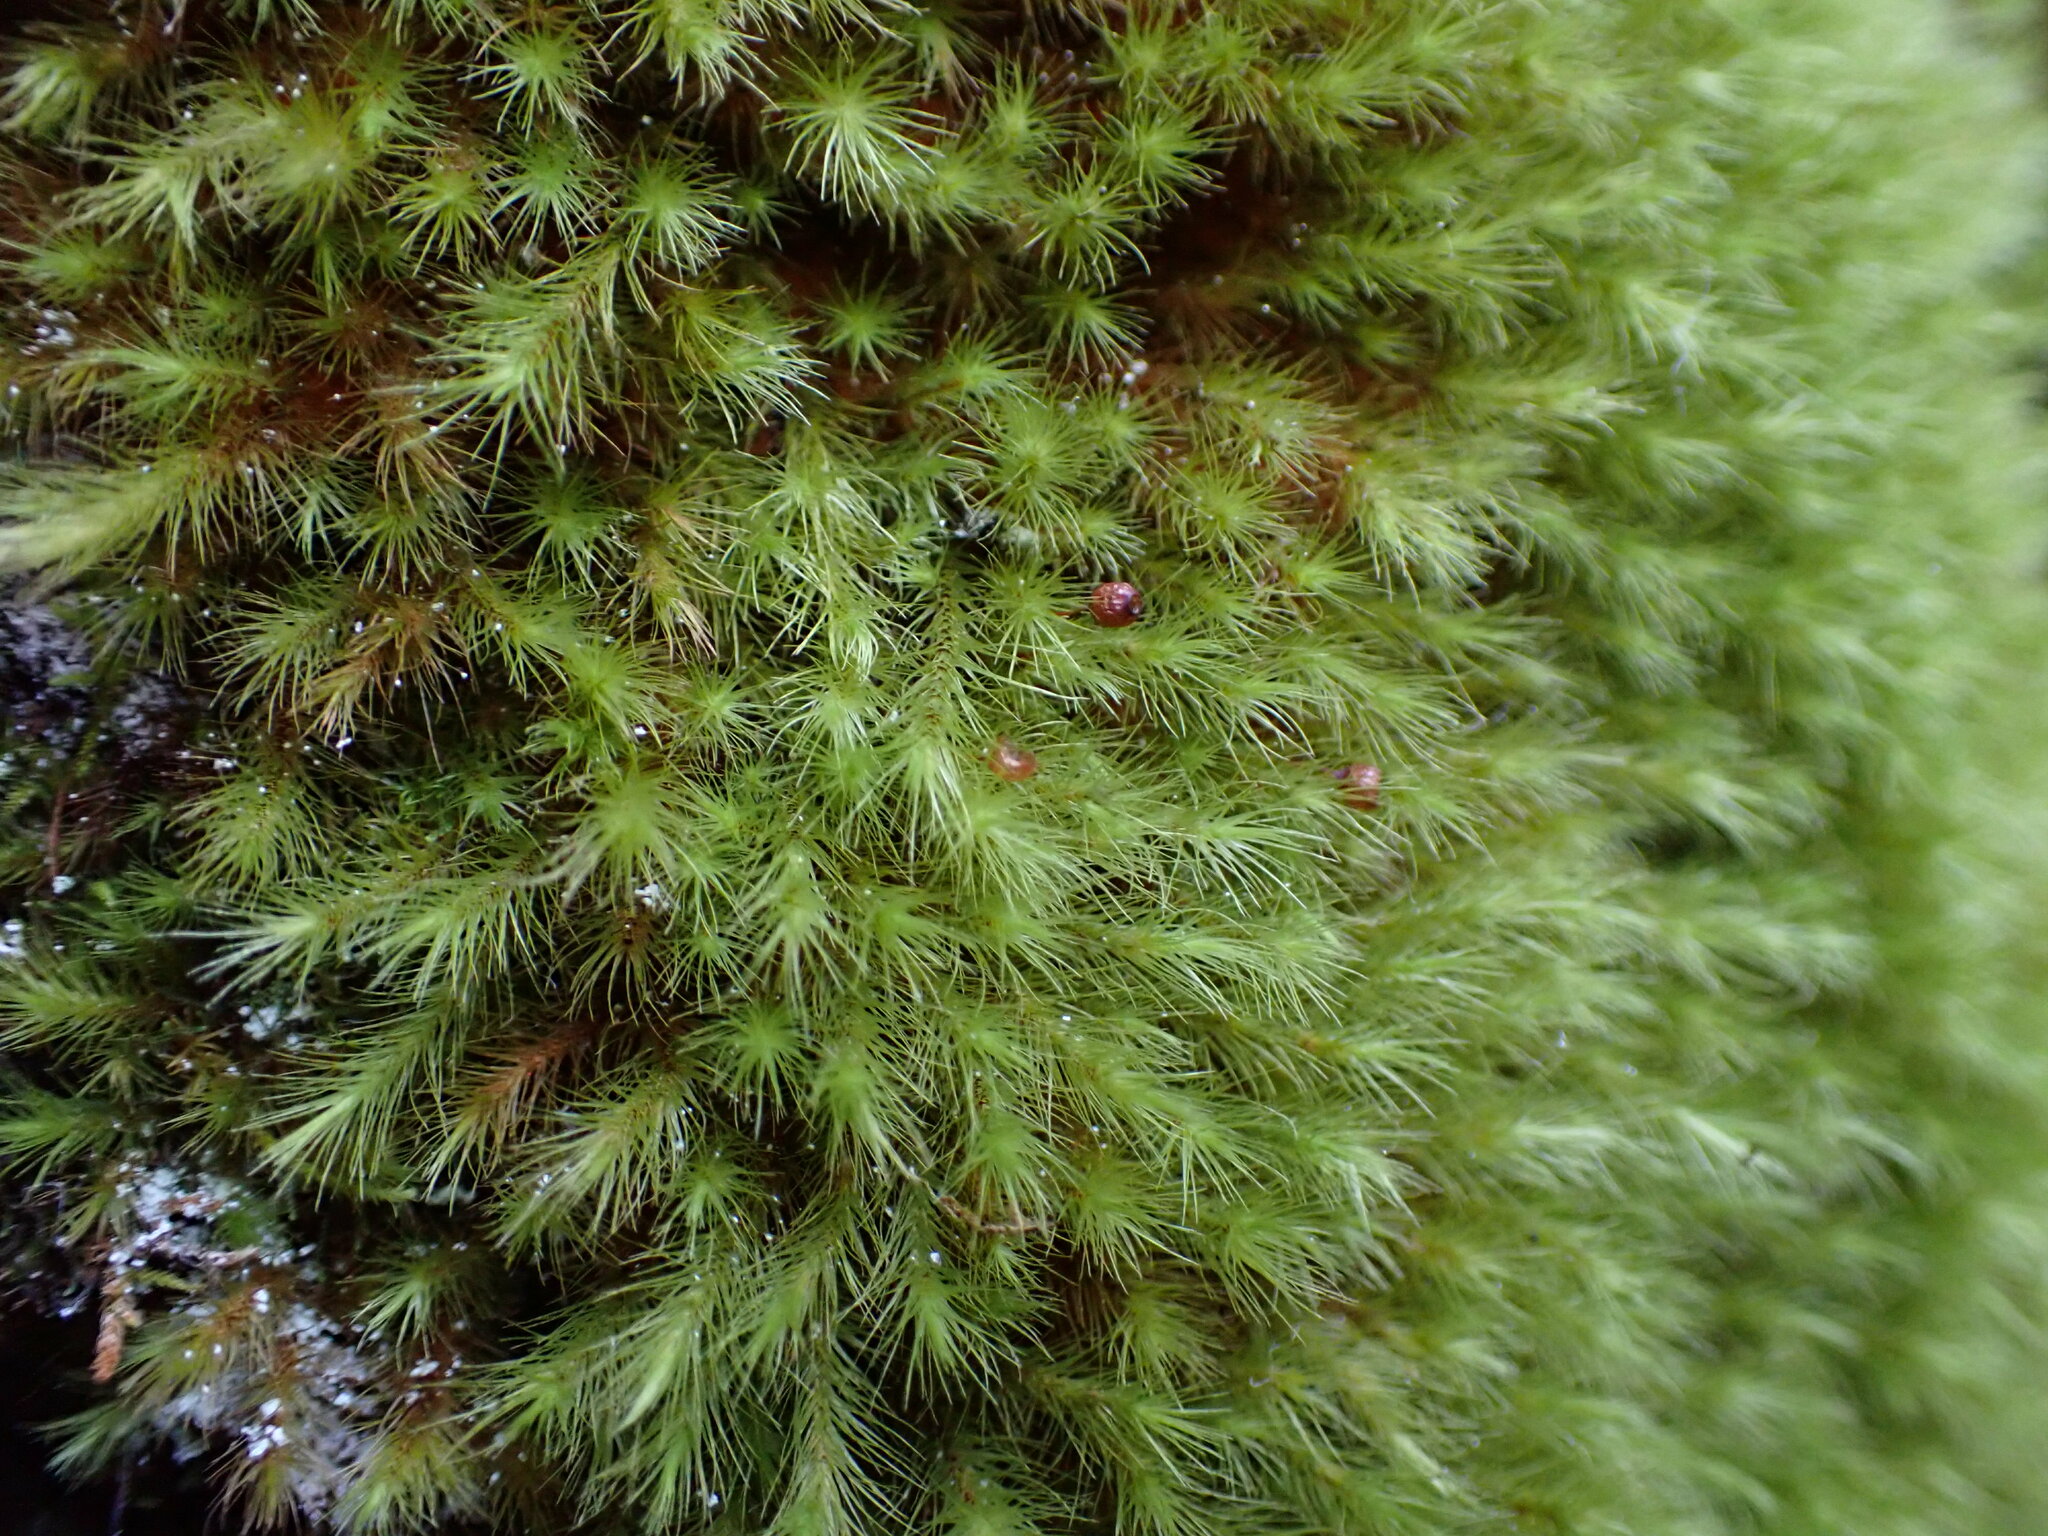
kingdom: Plantae
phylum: Bryophyta
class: Bryopsida
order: Bartramiales
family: Bartramiaceae
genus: Anacolia
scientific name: Anacolia menziesii
